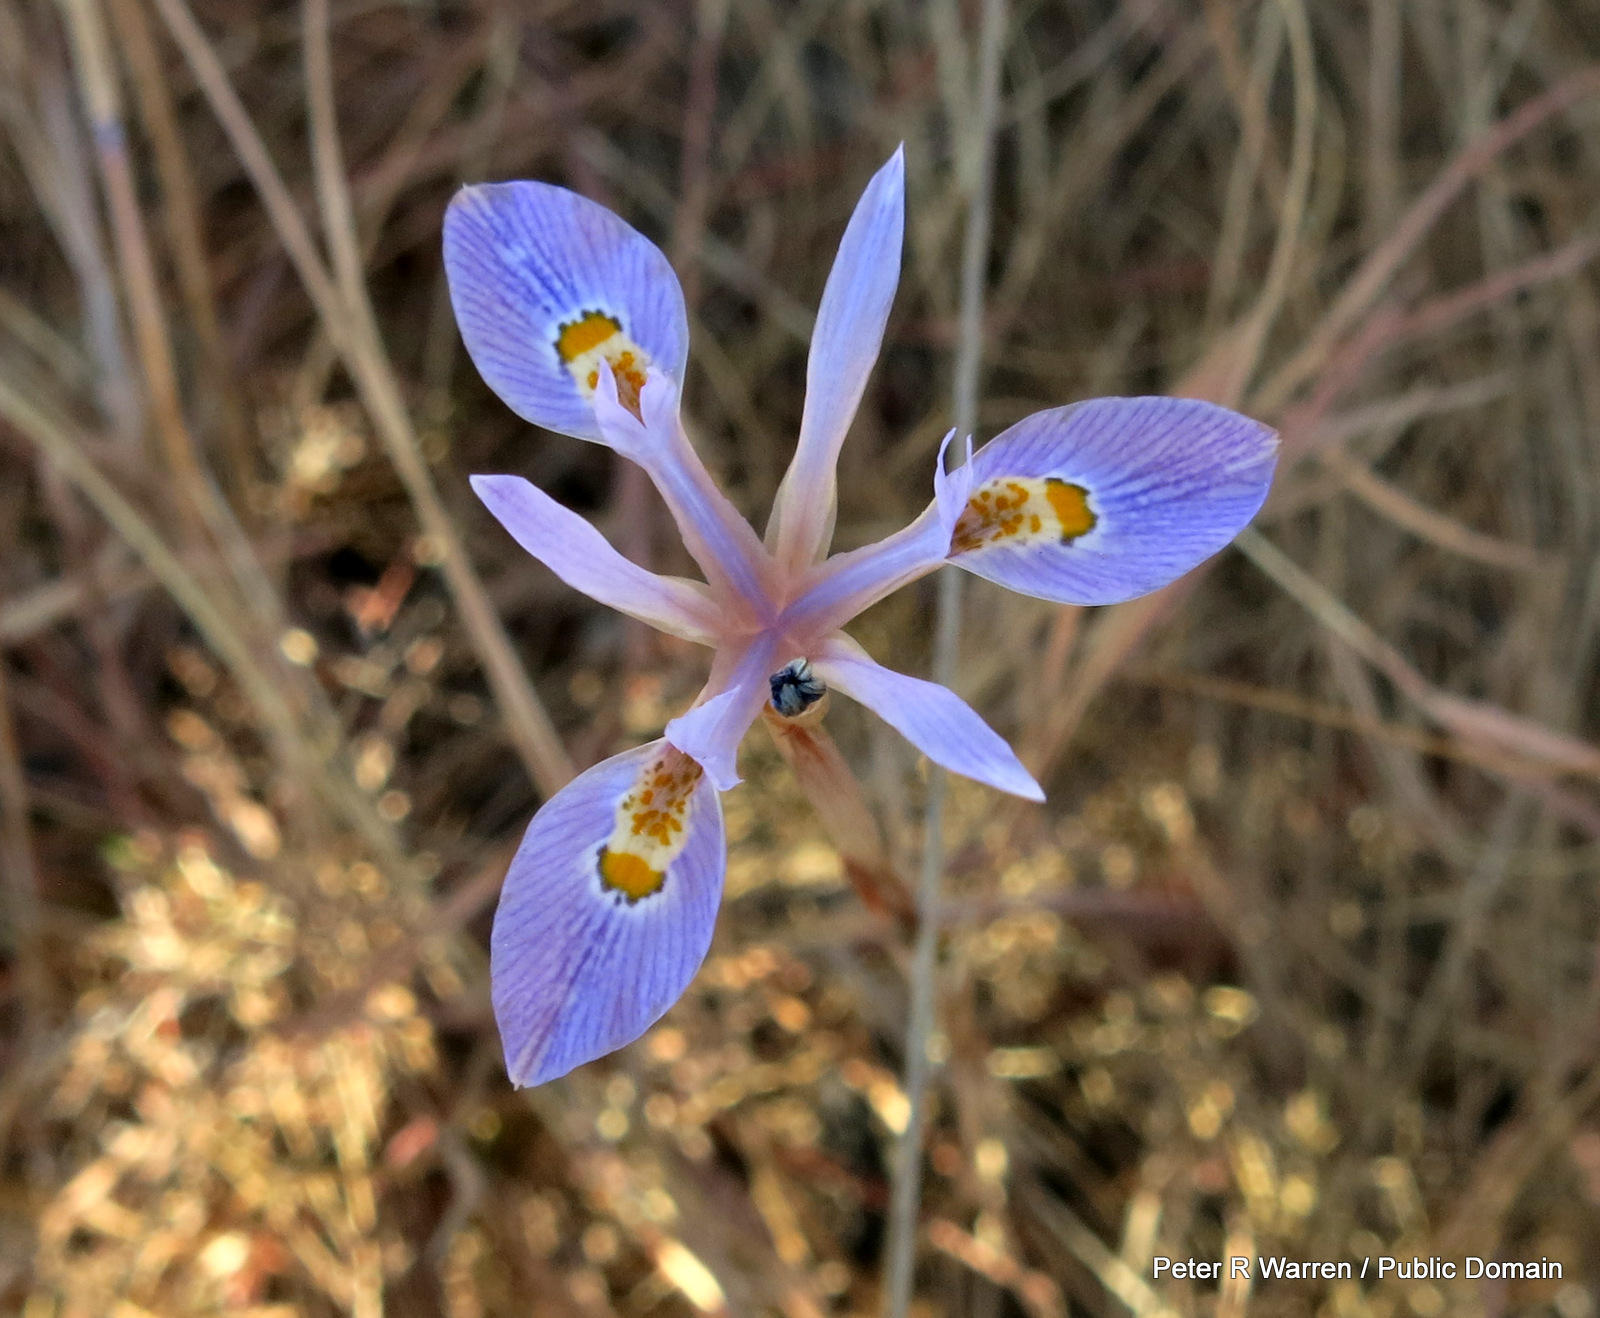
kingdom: Plantae
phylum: Tracheophyta
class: Liliopsida
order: Asparagales
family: Iridaceae
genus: Moraea
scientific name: Moraea stricta
